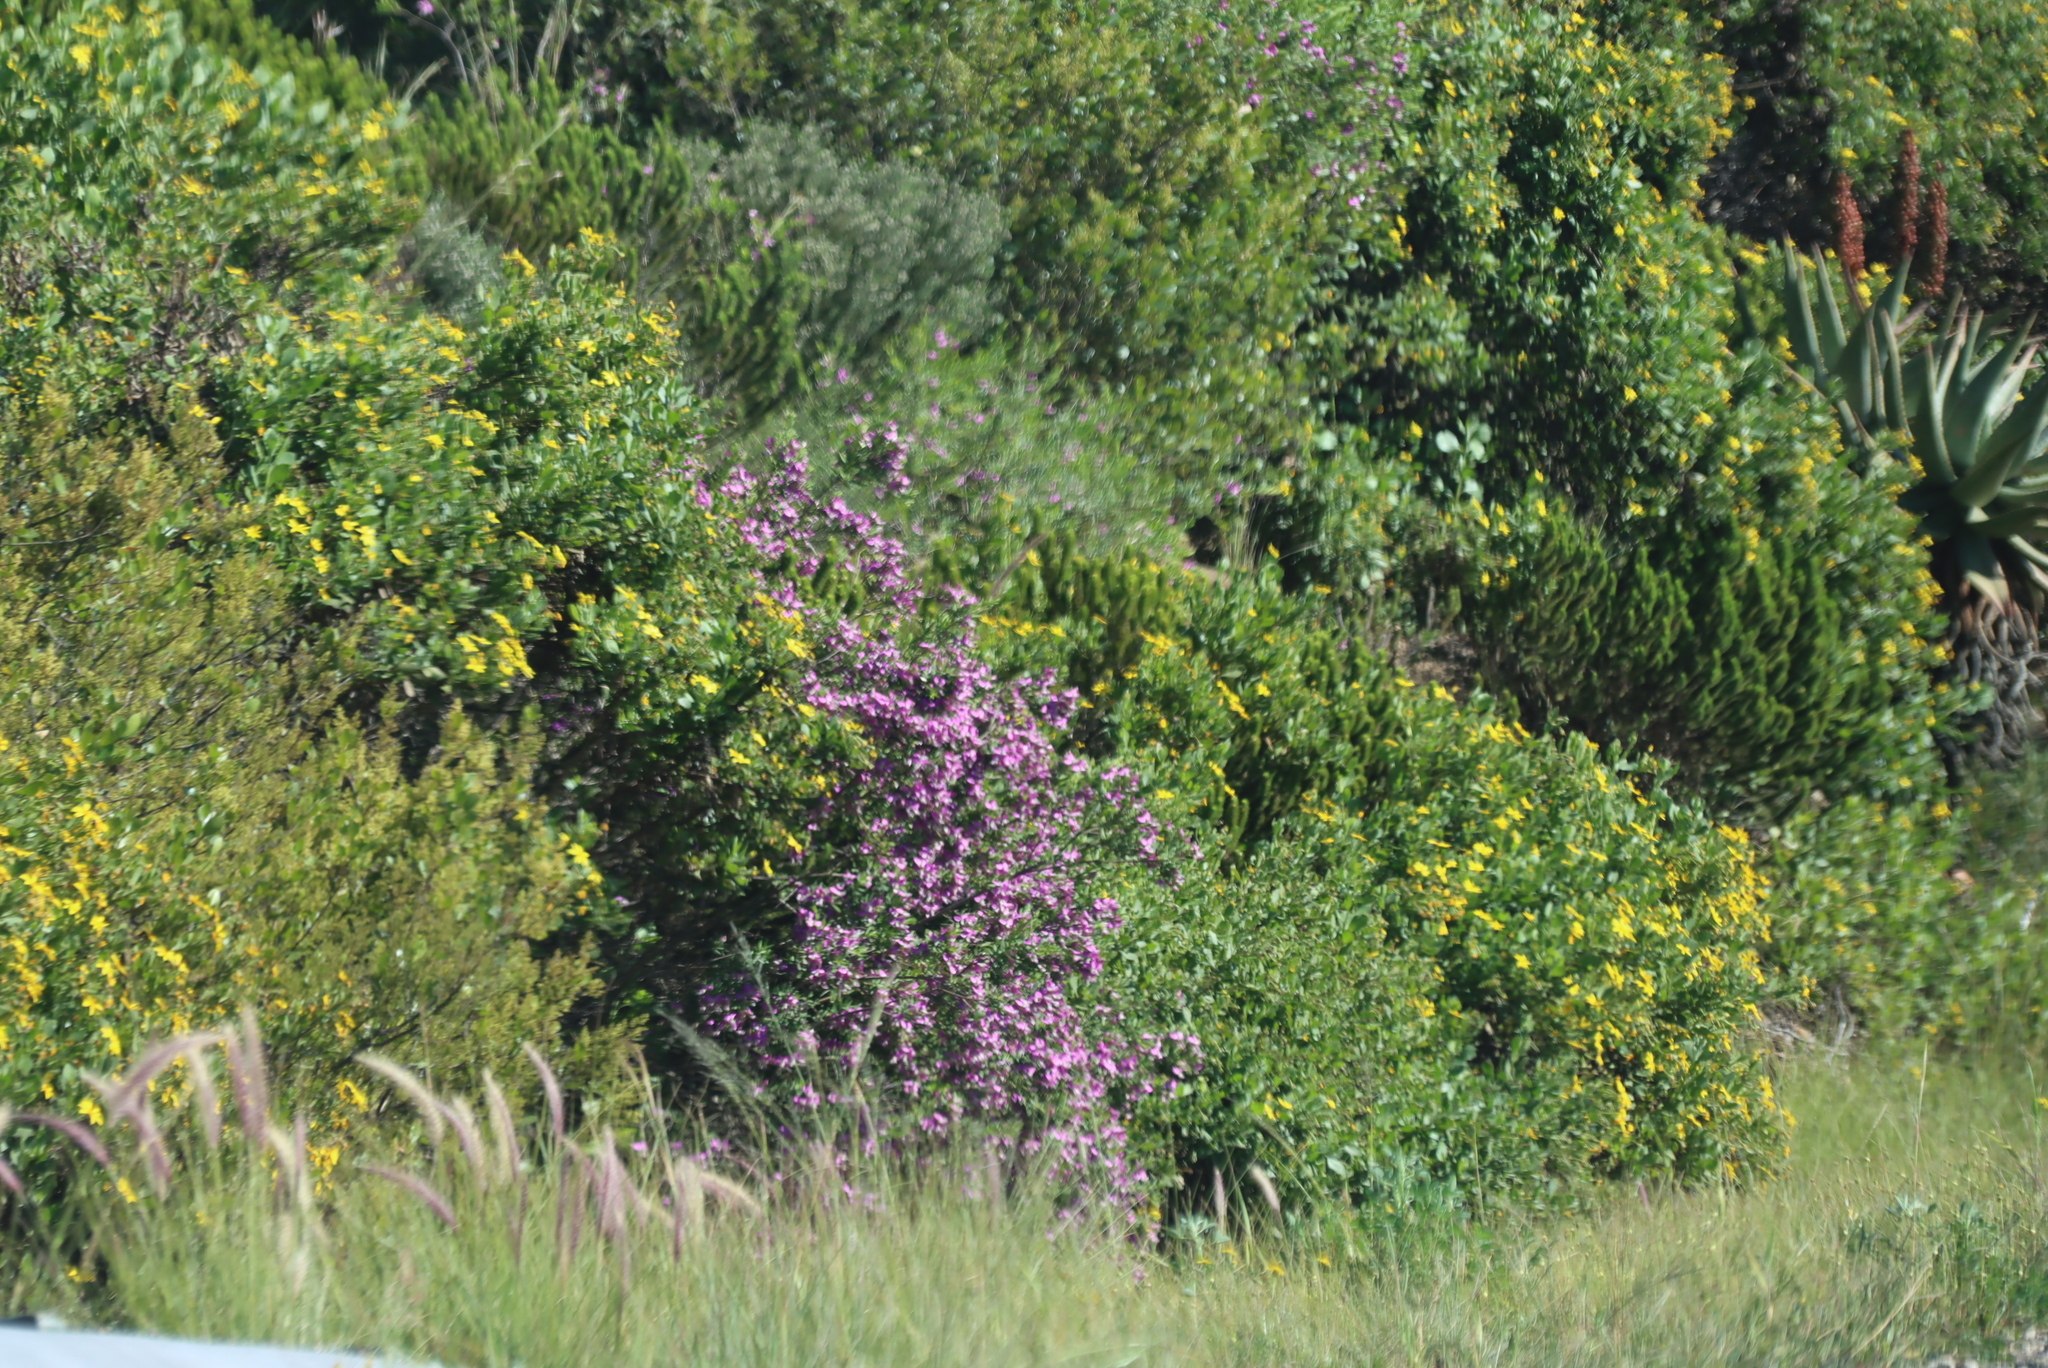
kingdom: Plantae
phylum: Tracheophyta
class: Liliopsida
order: Poales
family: Poaceae
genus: Cenchrus
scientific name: Cenchrus setaceus
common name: Crimson fountaingrass
